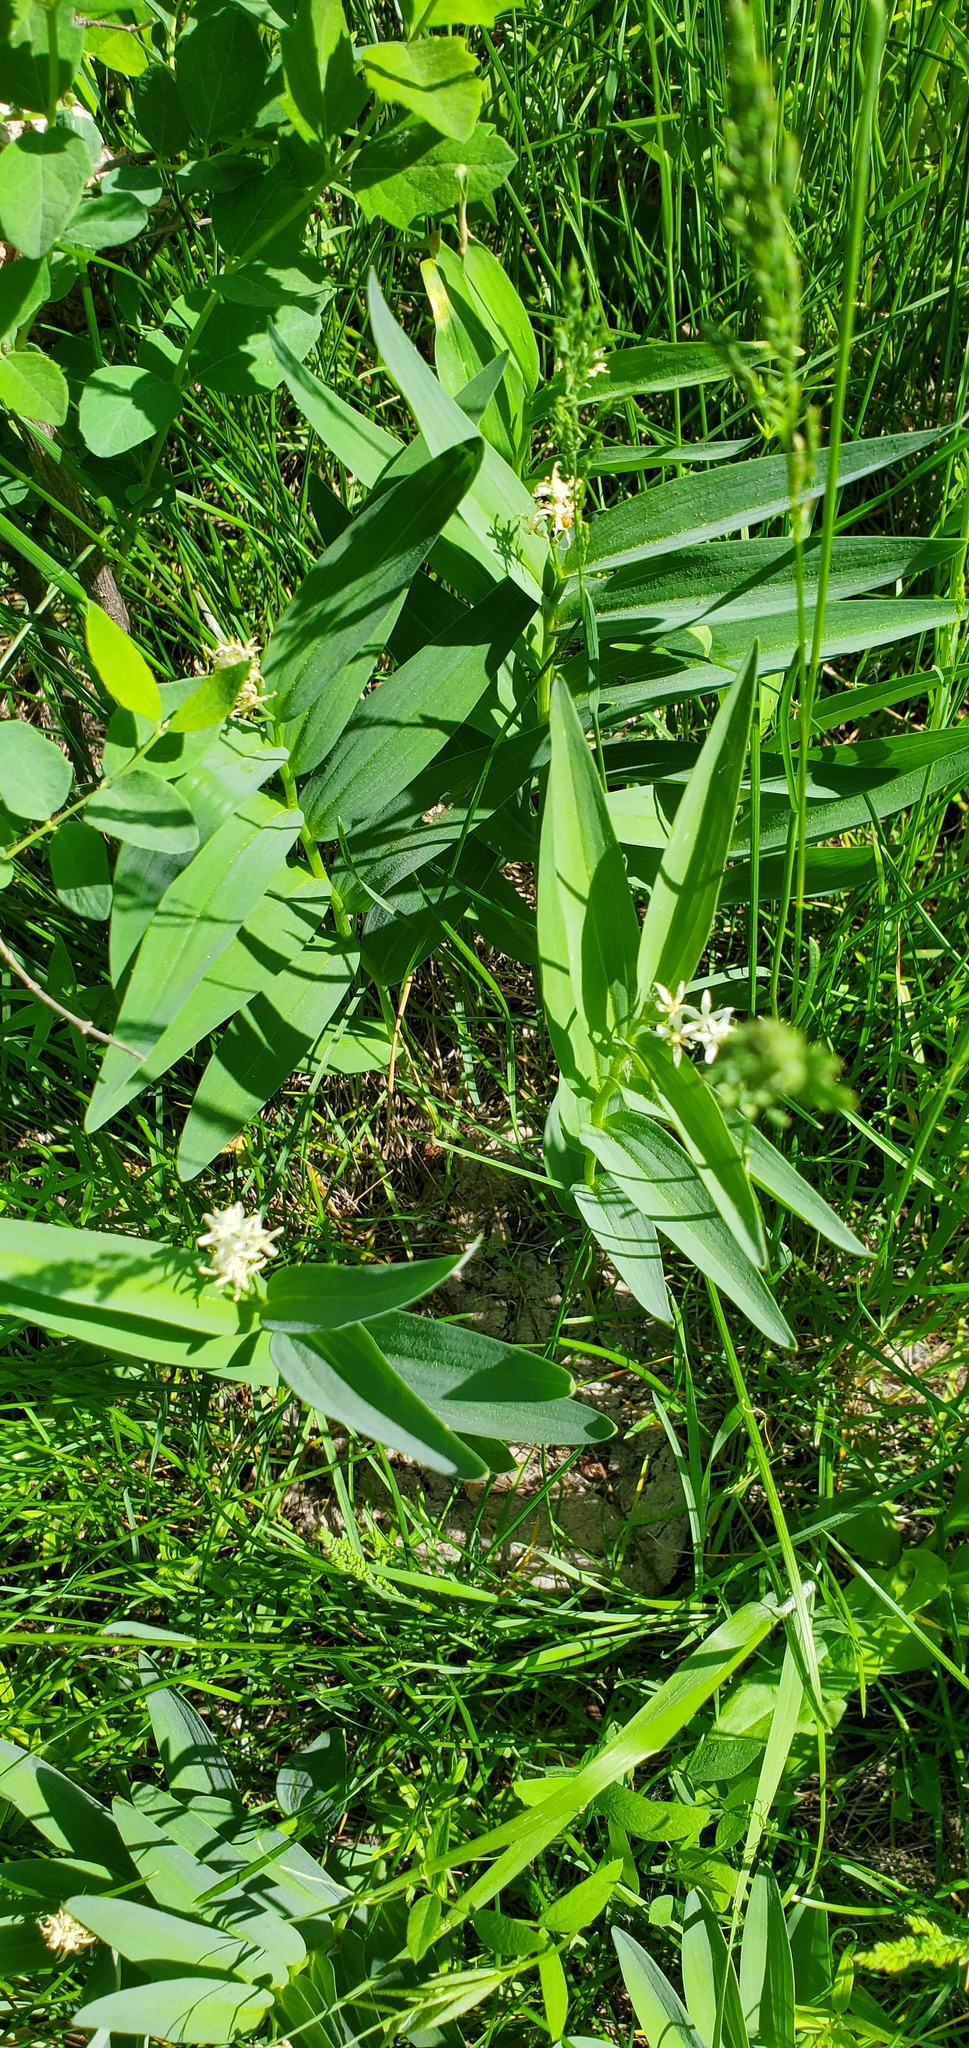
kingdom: Plantae
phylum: Tracheophyta
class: Liliopsida
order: Asparagales
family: Asparagaceae
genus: Maianthemum
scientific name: Maianthemum stellatum
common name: Little false solomon's seal
